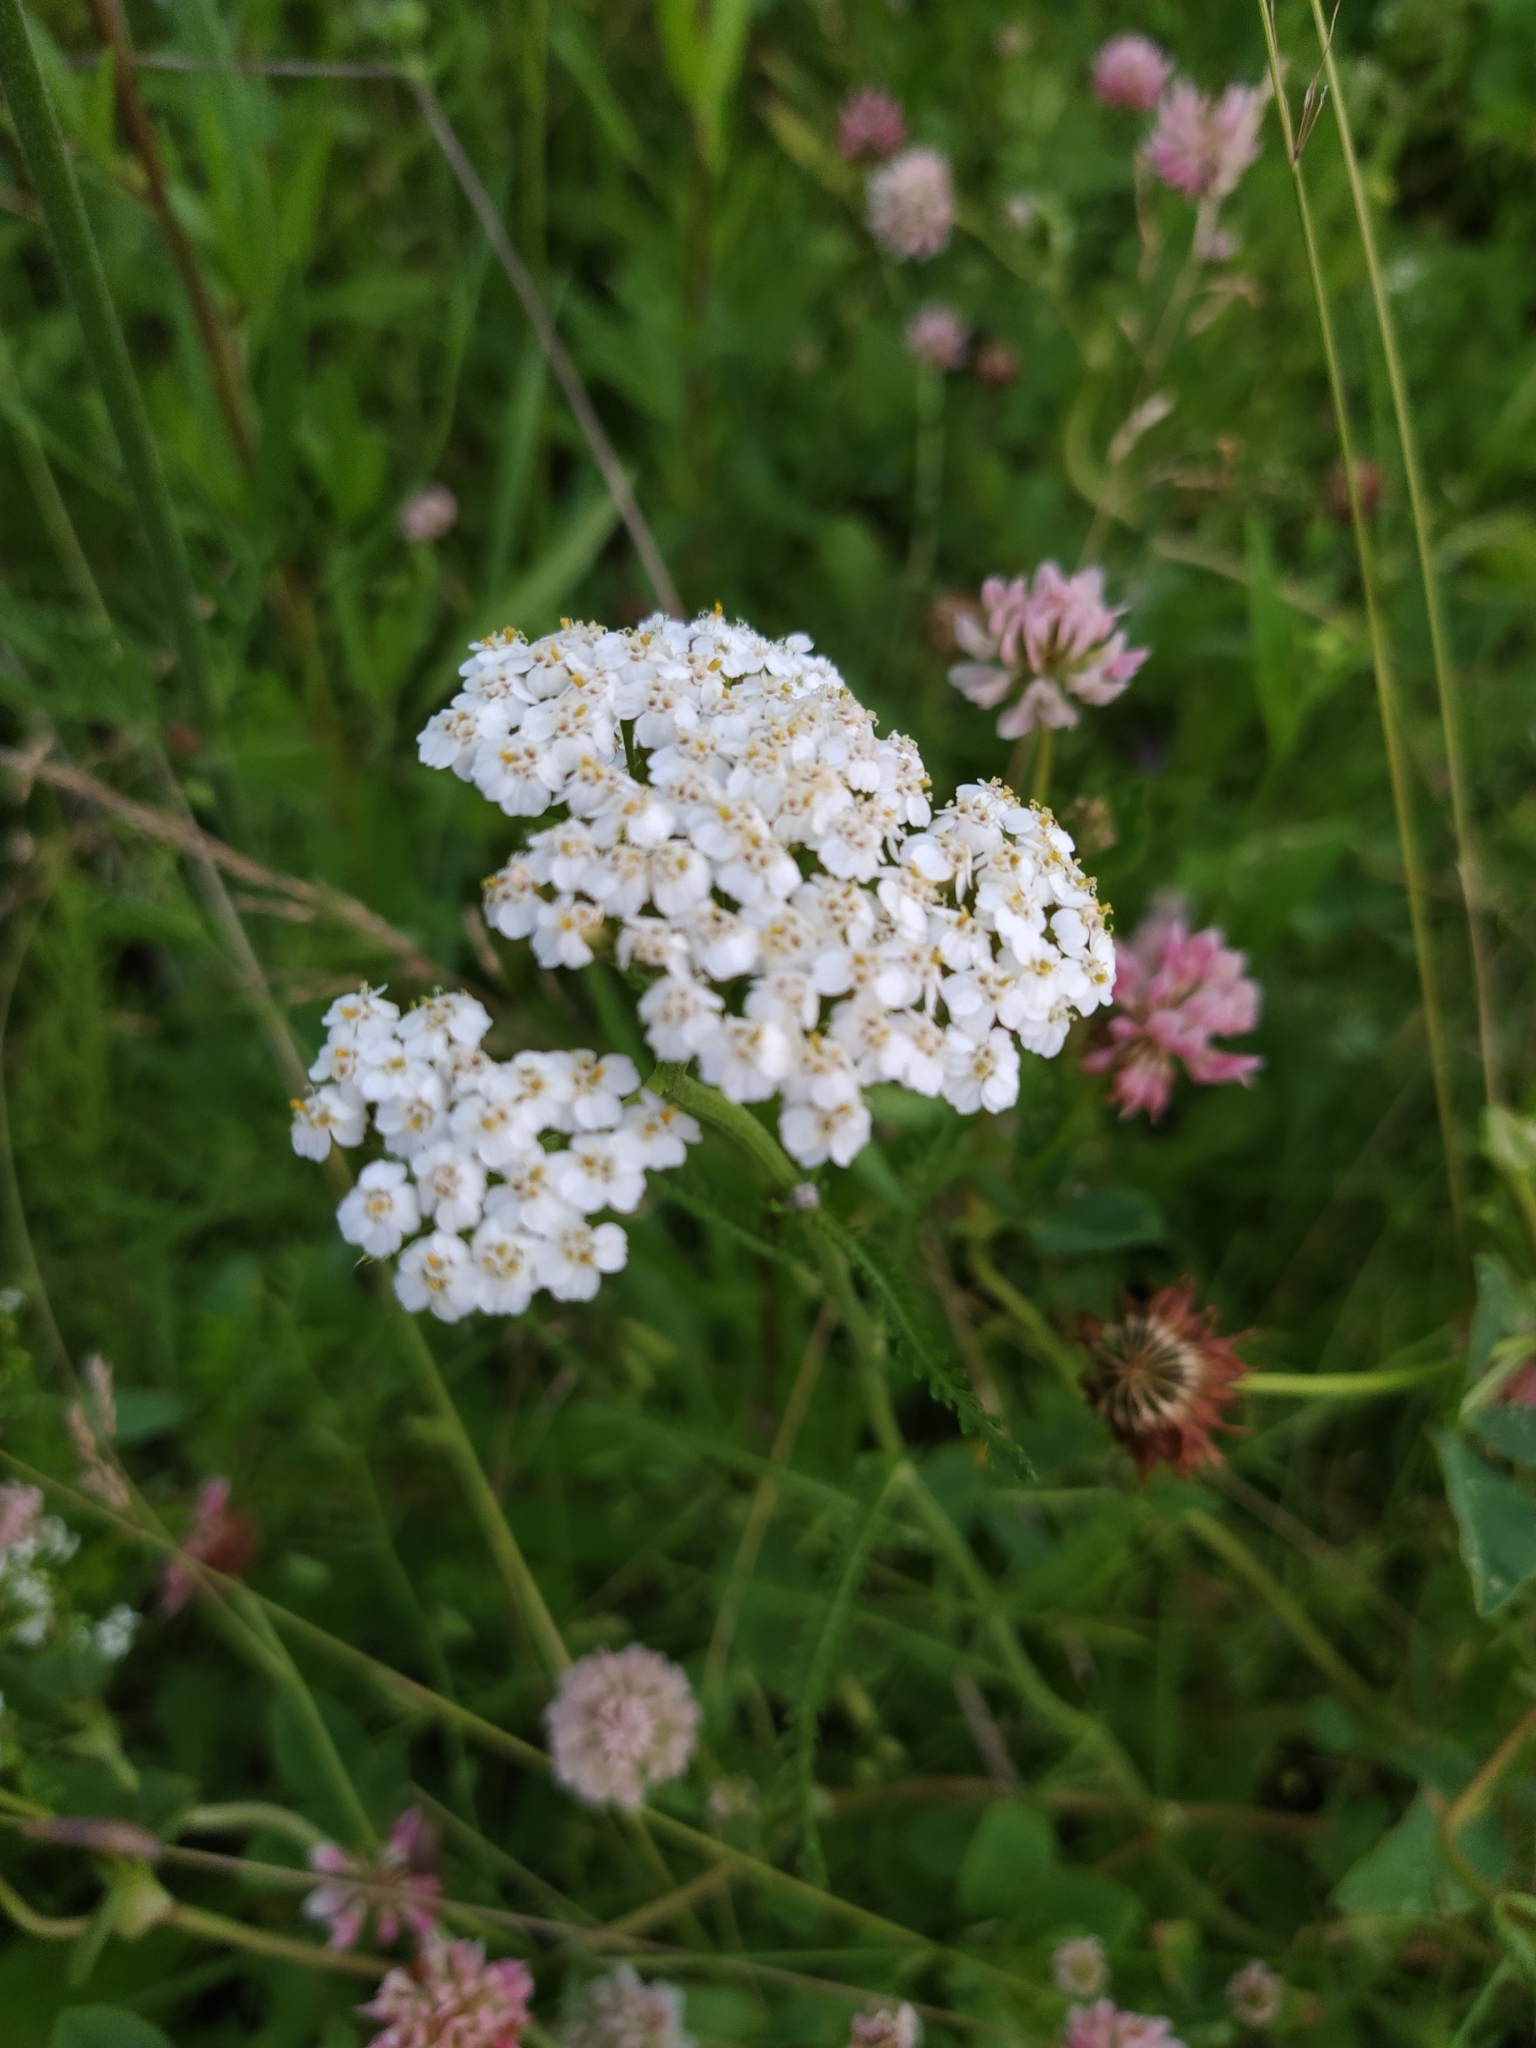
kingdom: Plantae
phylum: Tracheophyta
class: Magnoliopsida
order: Asterales
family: Asteraceae
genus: Achillea
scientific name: Achillea millefolium
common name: Yarrow
